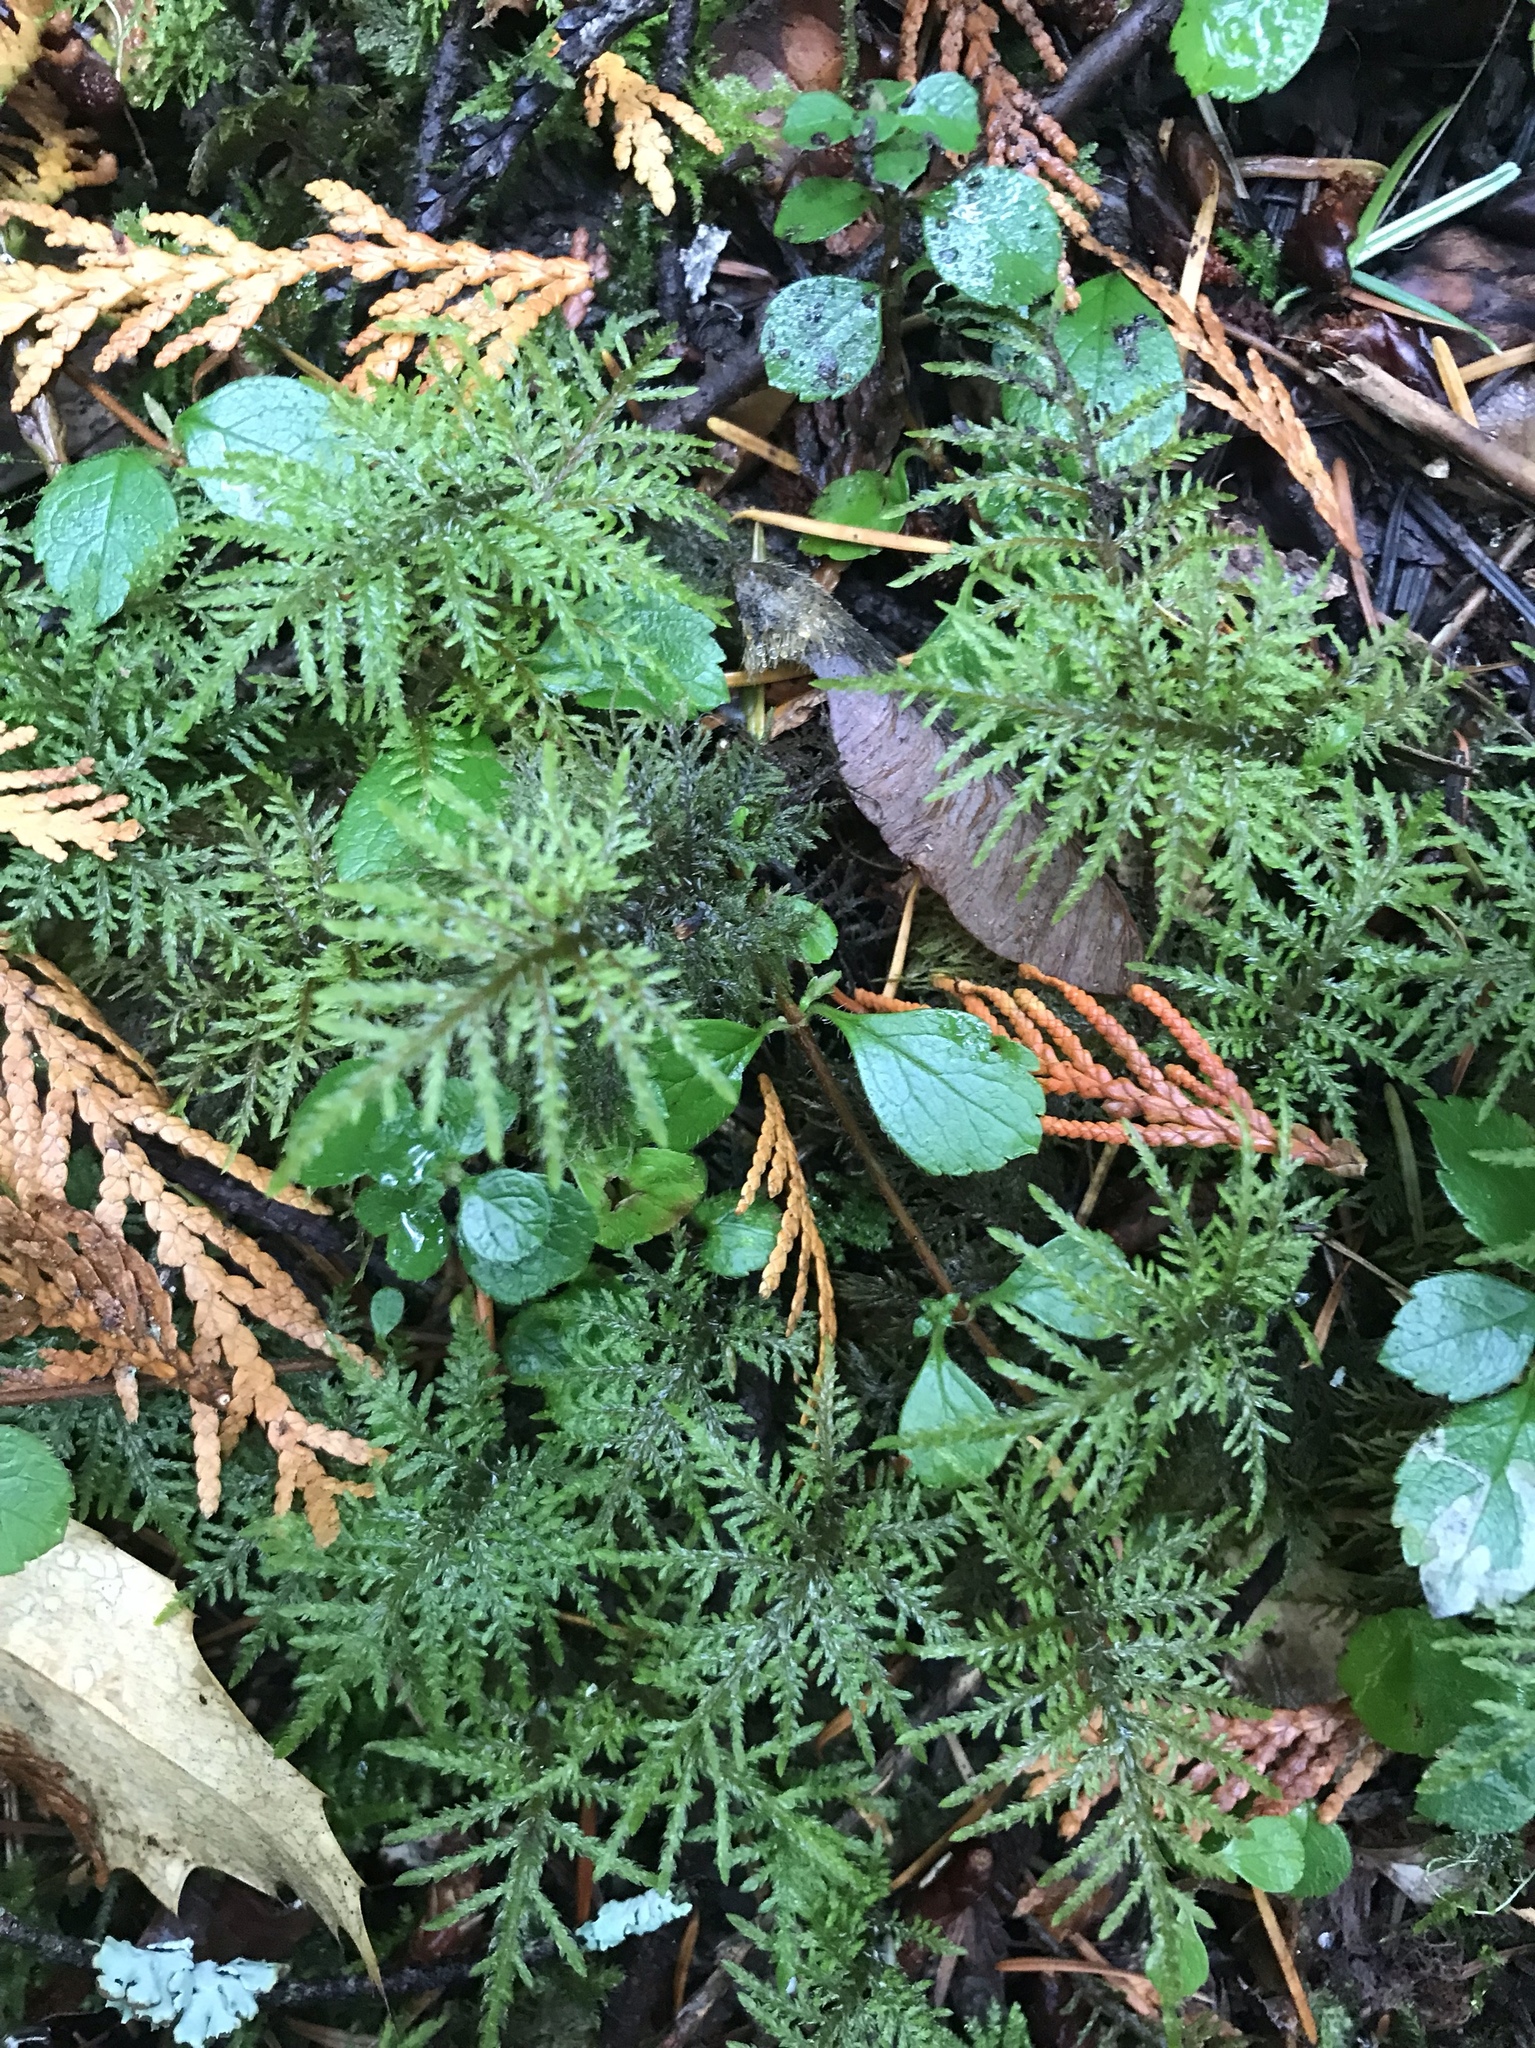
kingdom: Plantae
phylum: Bryophyta
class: Bryopsida
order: Hypnales
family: Hylocomiaceae
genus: Hylocomium
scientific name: Hylocomium splendens
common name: Stairstep moss
